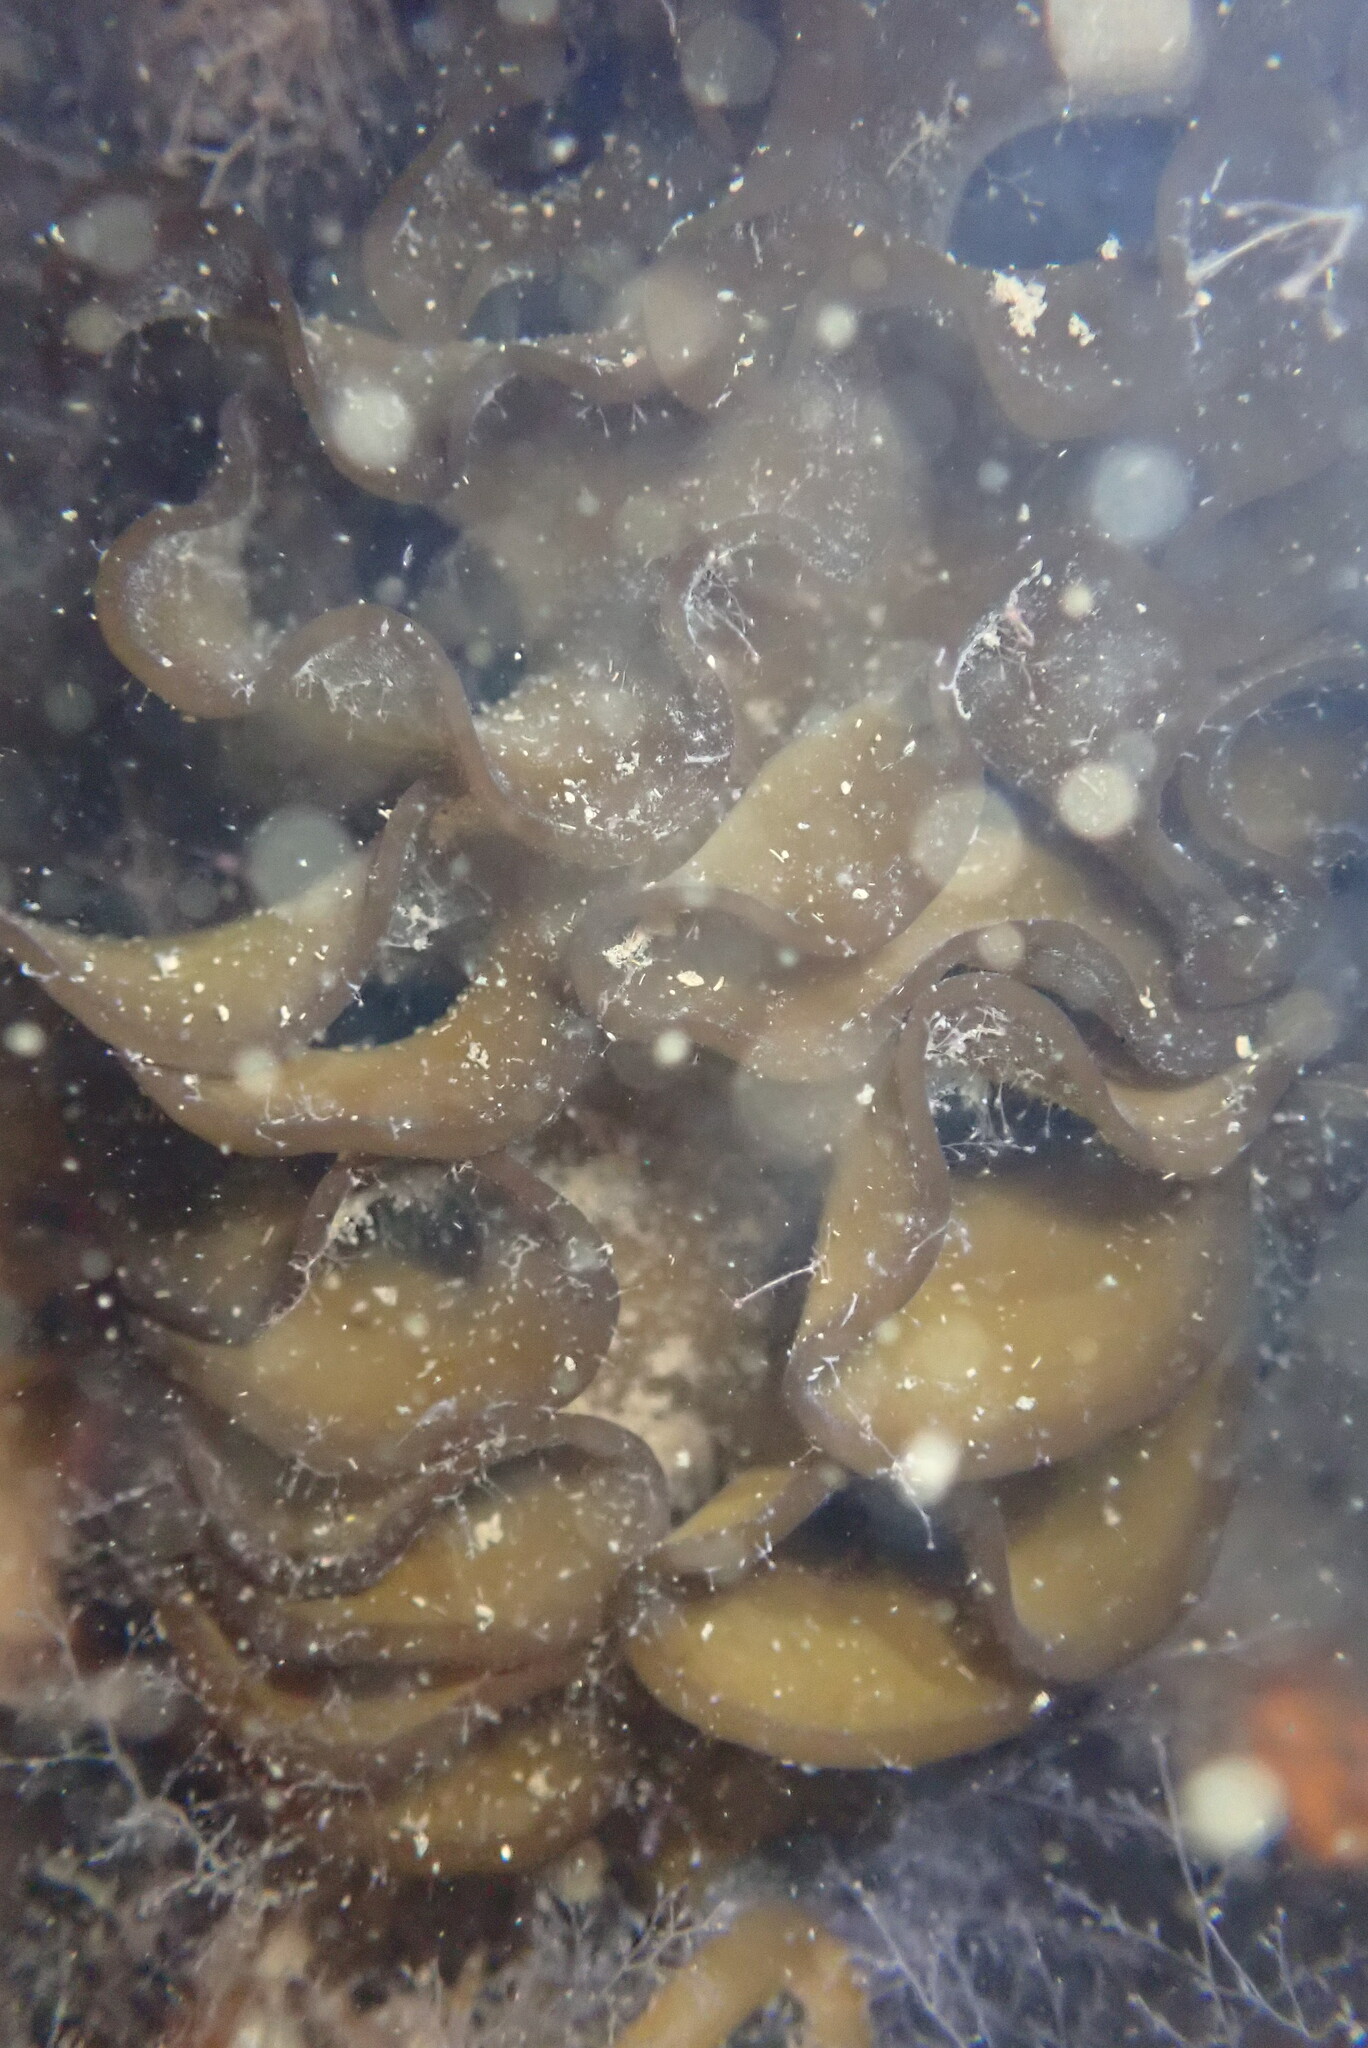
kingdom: Chromista
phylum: Ochrophyta
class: Phaeophyceae
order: Laminariales
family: Alariaceae
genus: Undaria
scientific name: Undaria pinnatifida
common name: Asian kelp
